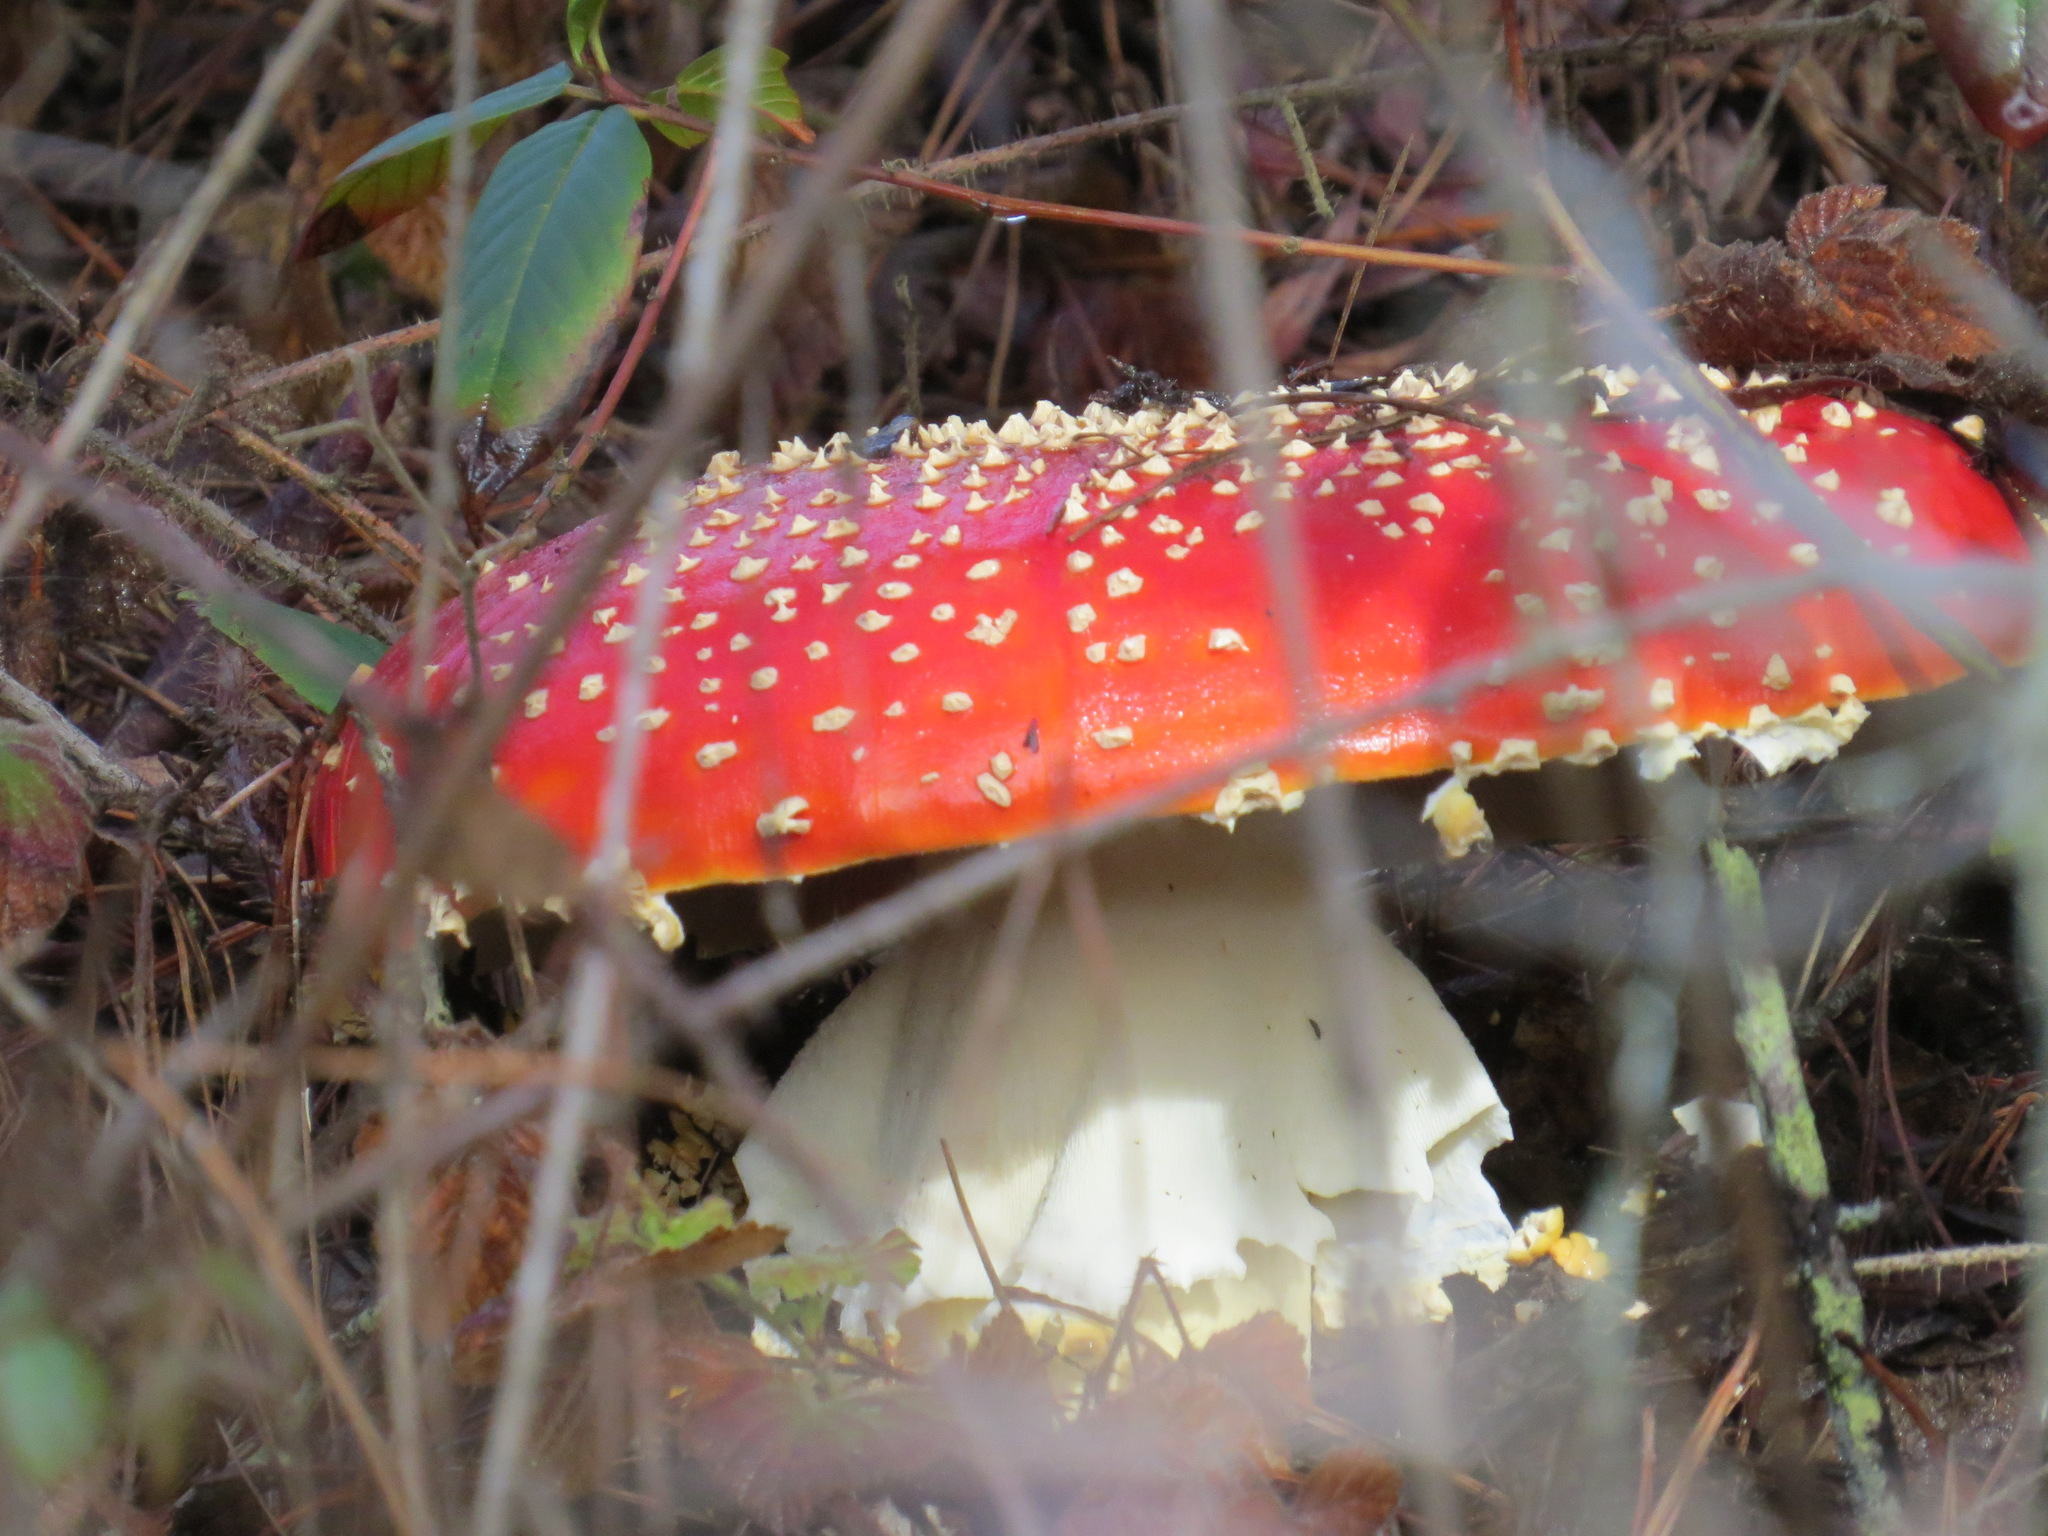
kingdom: Fungi
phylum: Basidiomycota
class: Agaricomycetes
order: Agaricales
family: Amanitaceae
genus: Amanita
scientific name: Amanita muscaria
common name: Fly agaric
